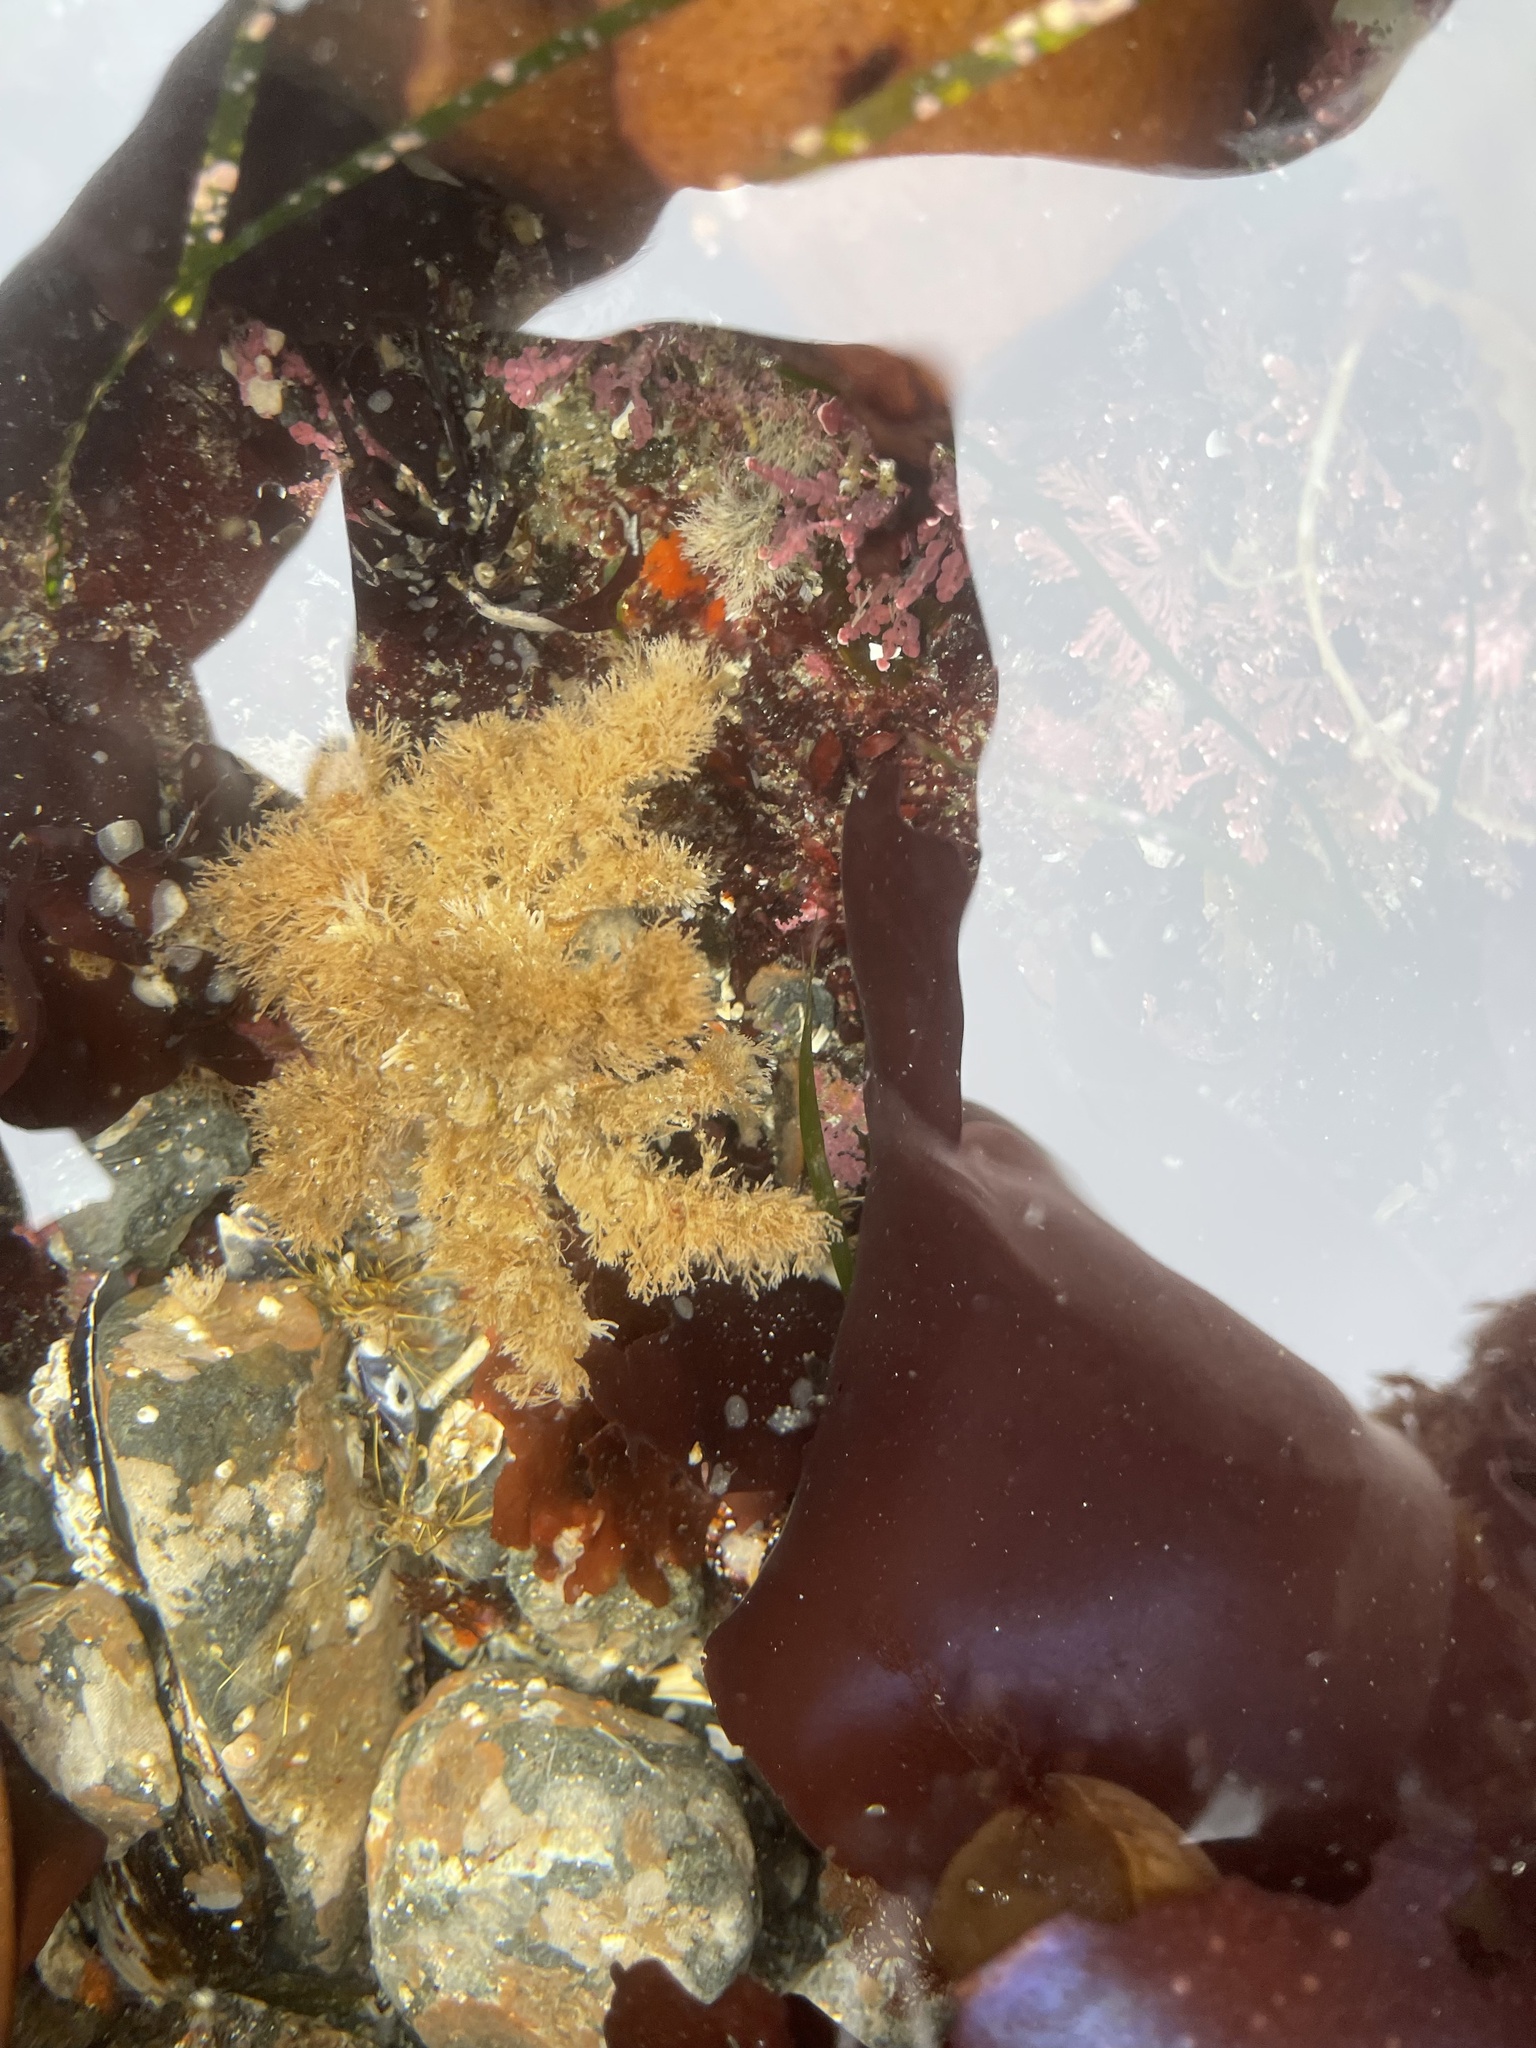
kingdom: Animalia
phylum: Arthropoda
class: Malacostraca
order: Decapoda
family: Oregoniidae
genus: Oregonia
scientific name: Oregonia gracilis
